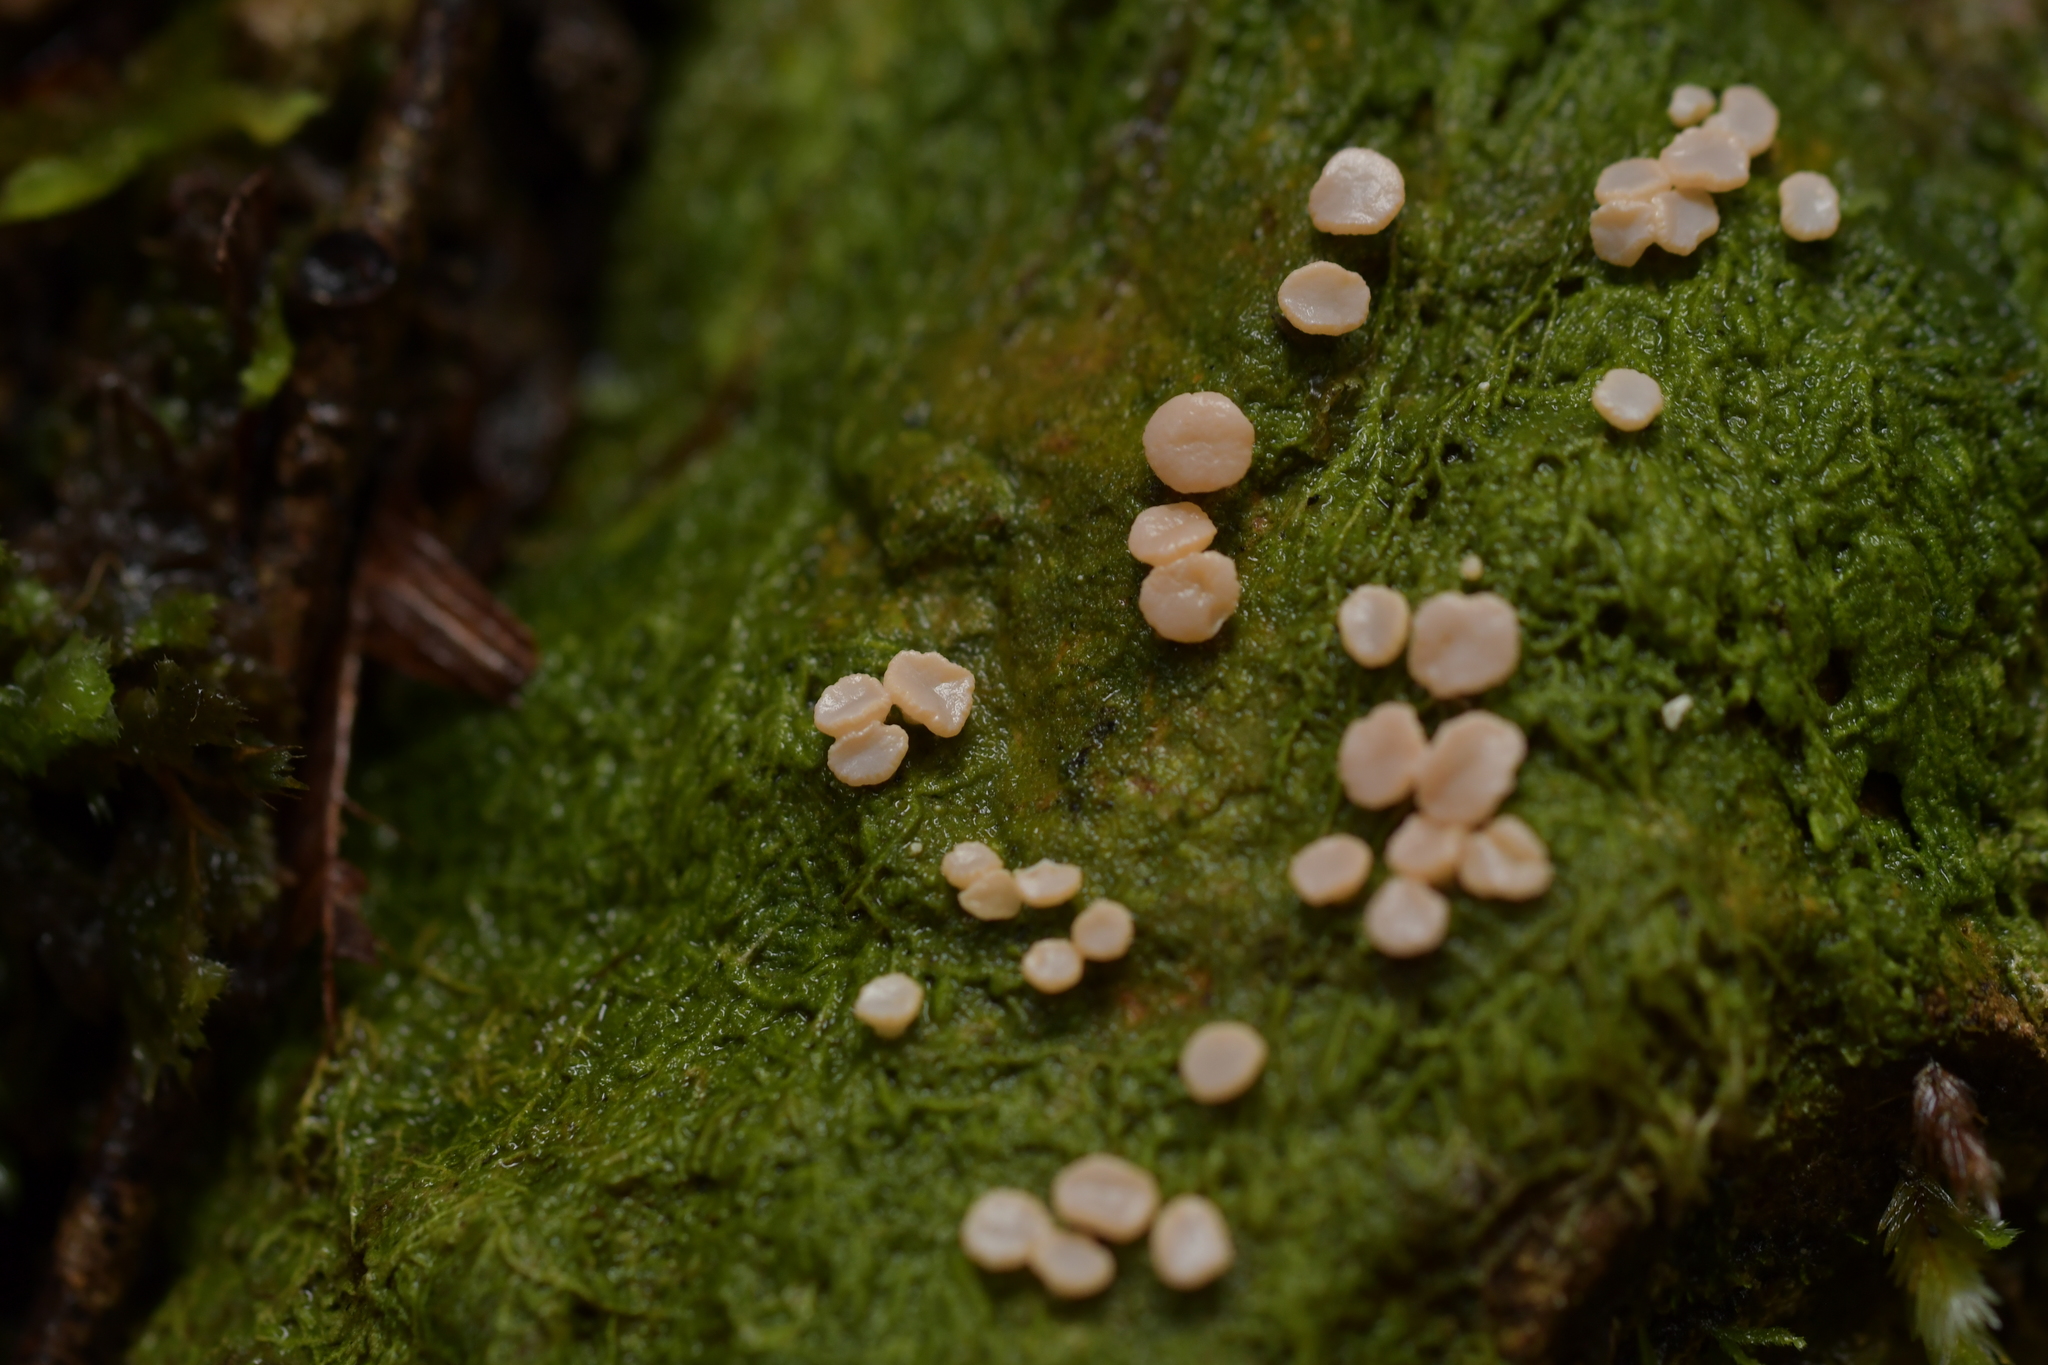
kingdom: Fungi
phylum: Ascomycota
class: Lecanoromycetes
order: Pertusariales
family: Icmadophilaceae
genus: Dibaeis
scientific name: Dibaeis absoluta
